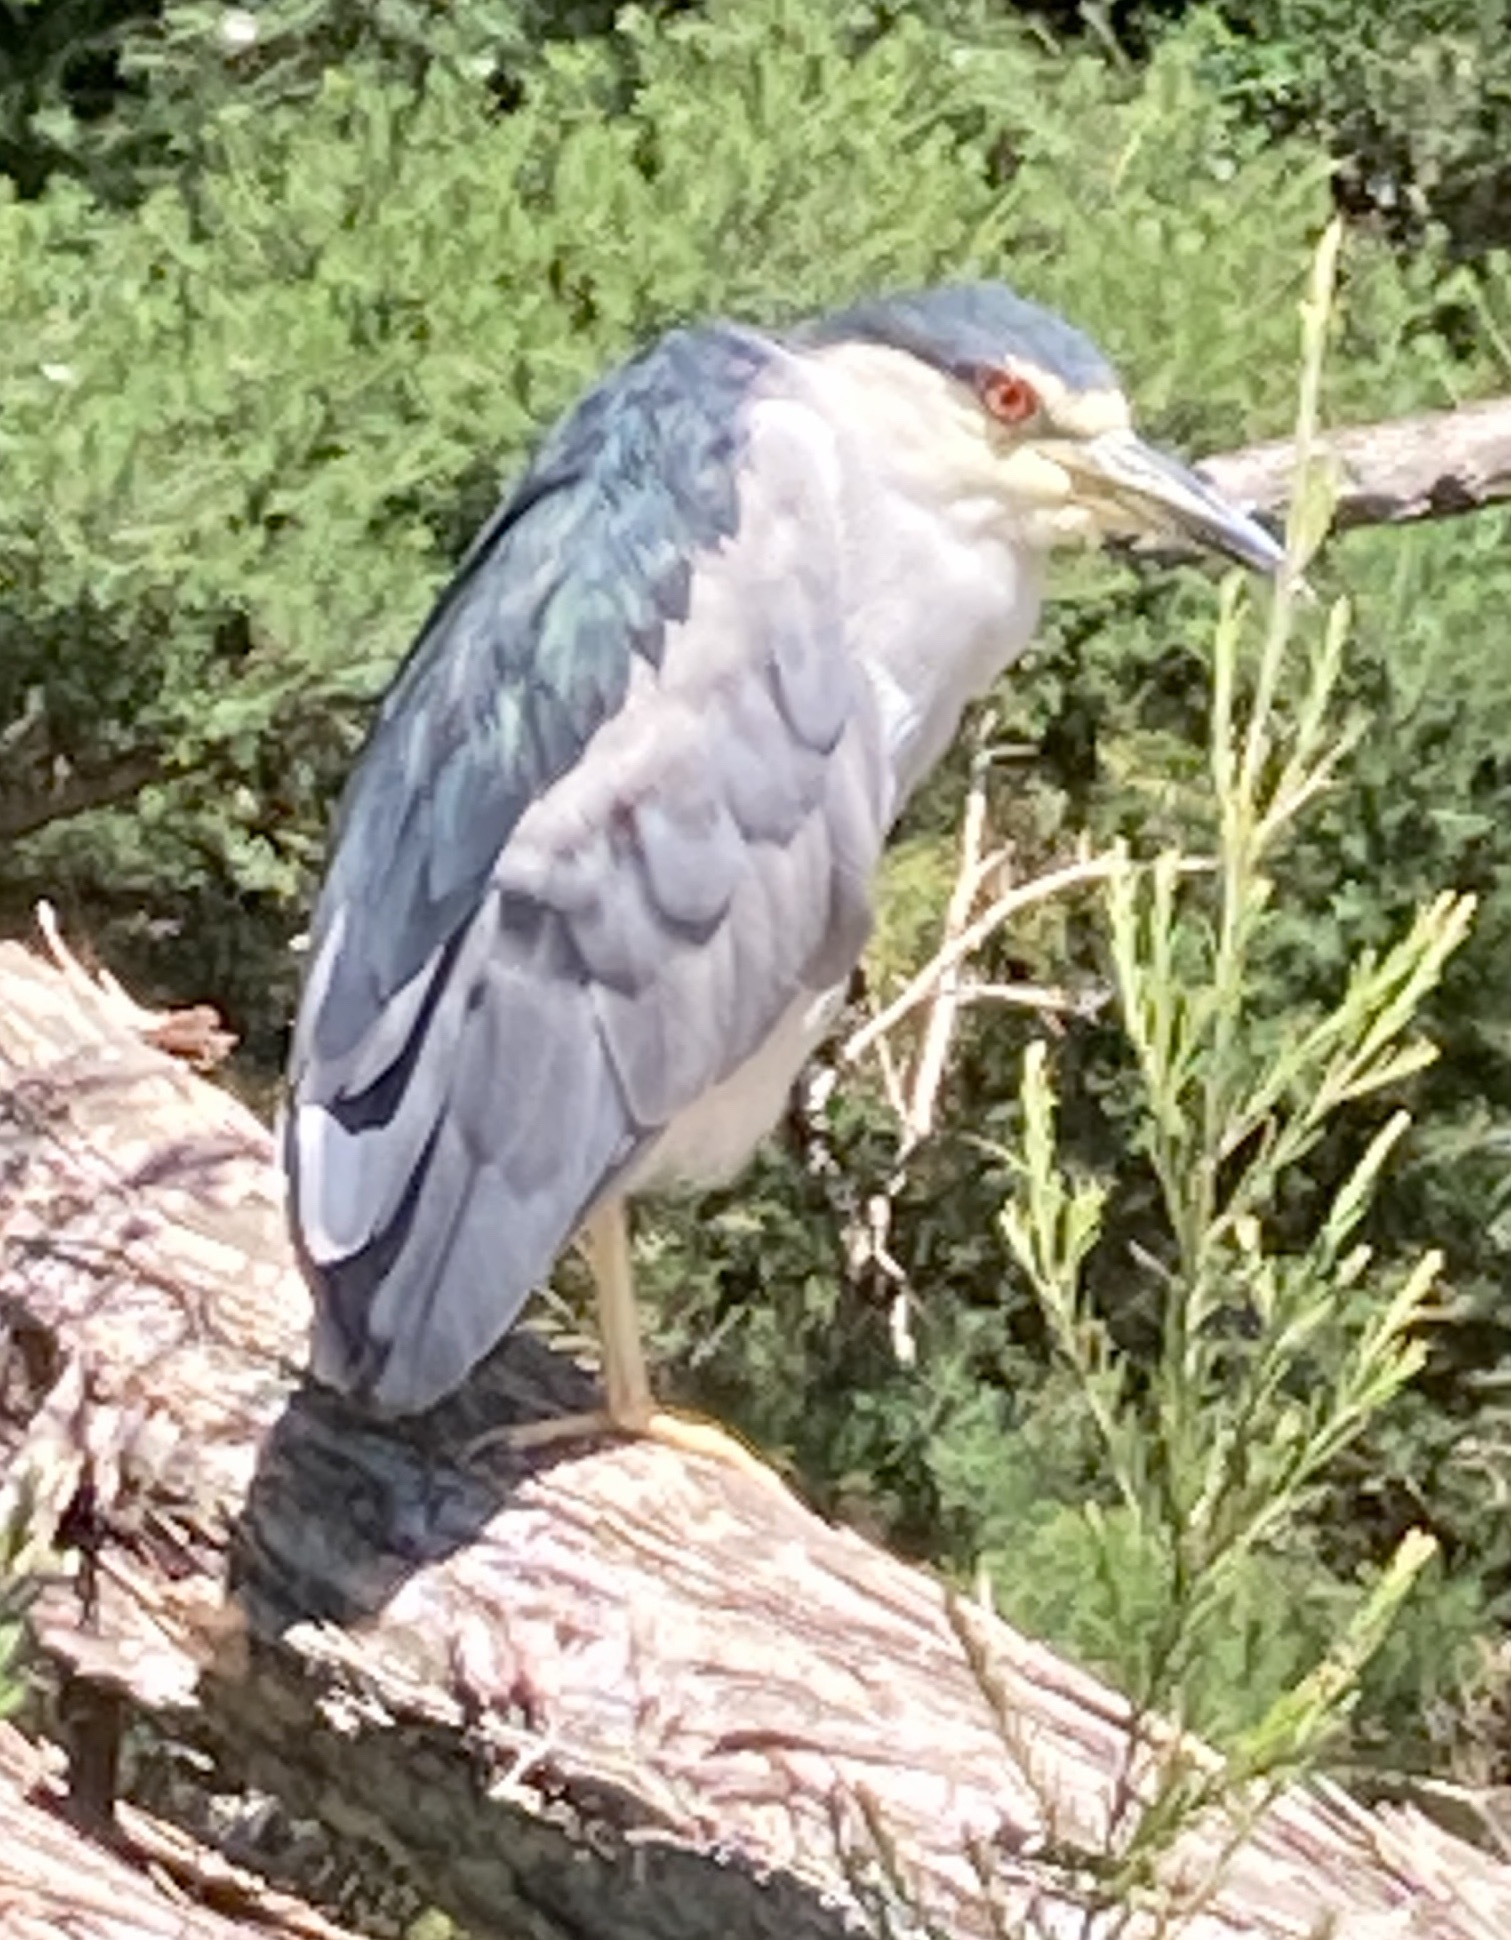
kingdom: Animalia
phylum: Chordata
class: Aves
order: Pelecaniformes
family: Ardeidae
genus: Nycticorax
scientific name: Nycticorax nycticorax
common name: Black-crowned night heron
